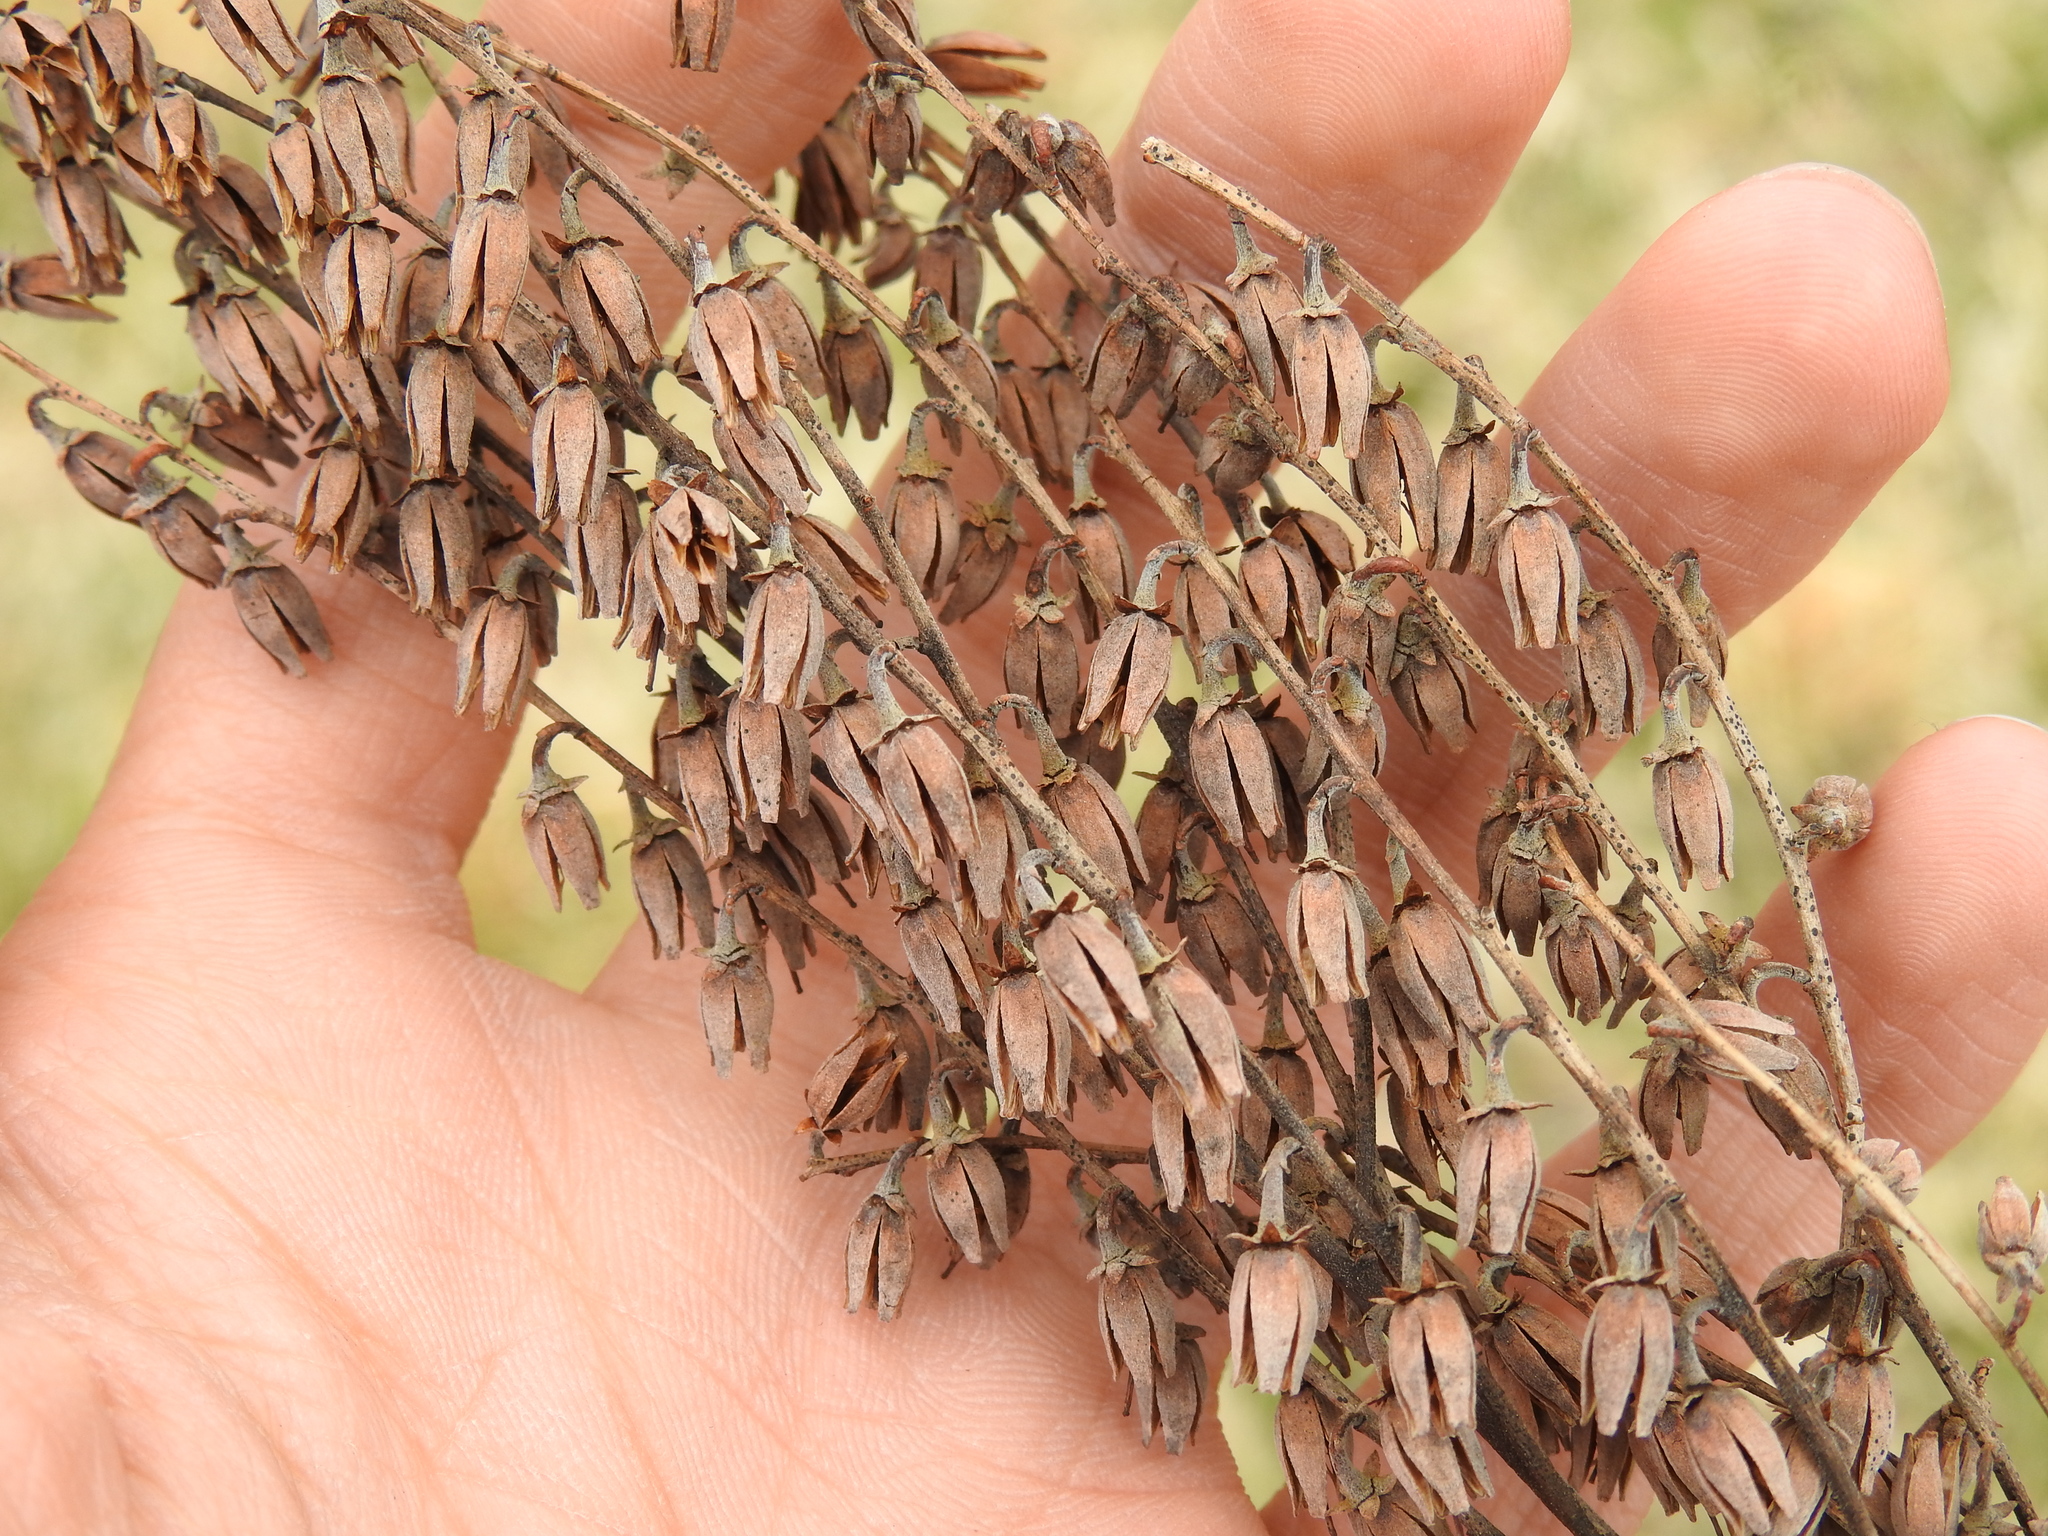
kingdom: Plantae
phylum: Tracheophyta
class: Magnoliopsida
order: Ericales
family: Ericaceae
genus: Oxydendrum
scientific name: Oxydendrum arboreum
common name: Sourwood
